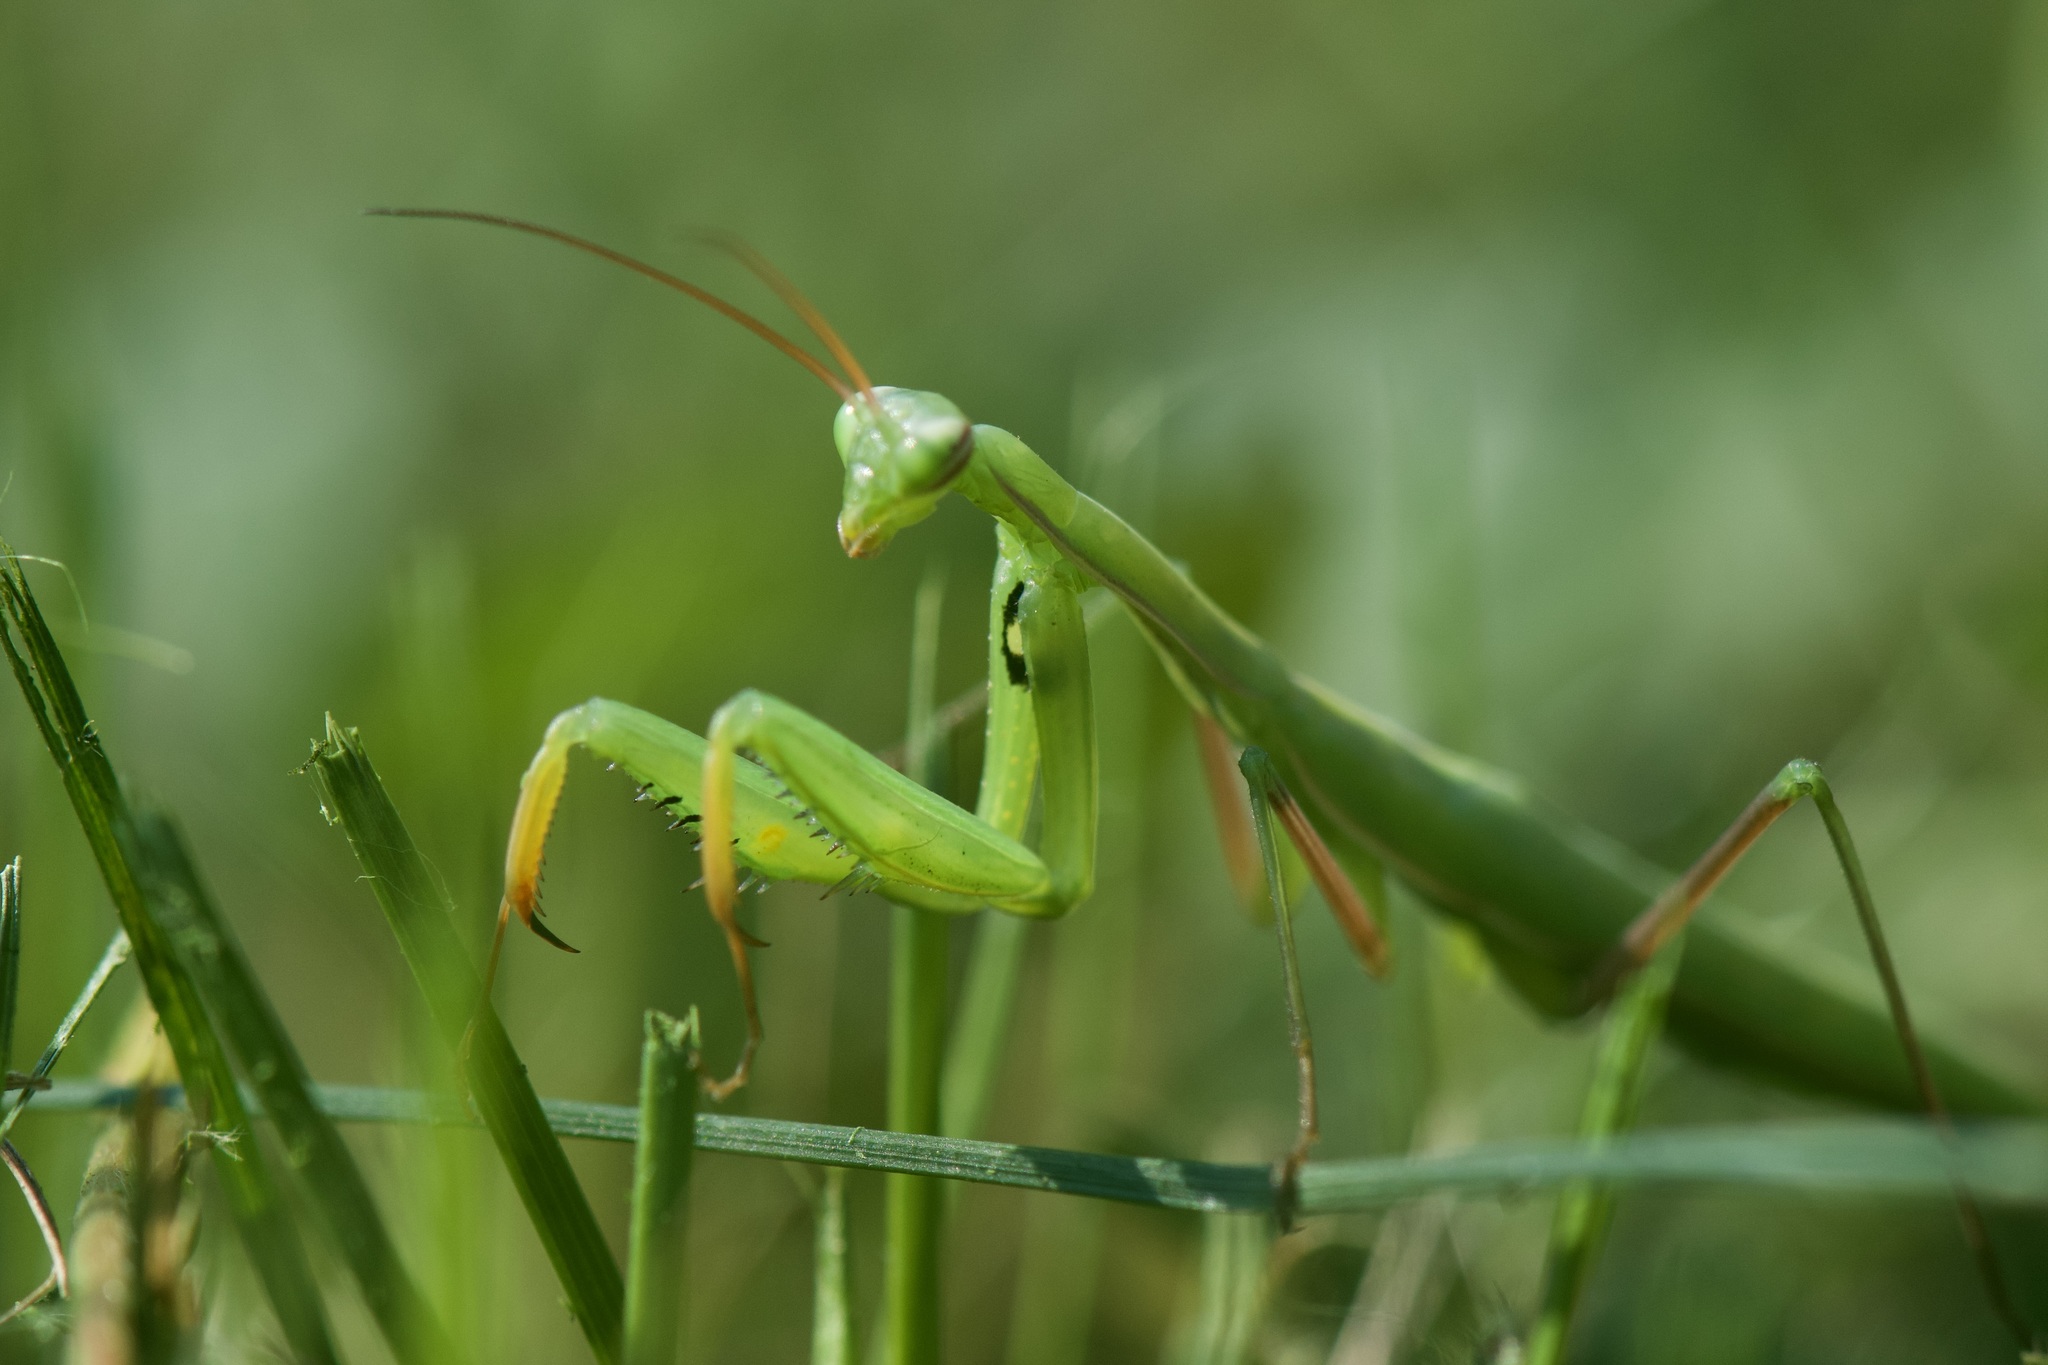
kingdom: Animalia
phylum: Arthropoda
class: Insecta
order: Mantodea
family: Mantidae
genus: Mantis
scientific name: Mantis religiosa
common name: Praying mantis
